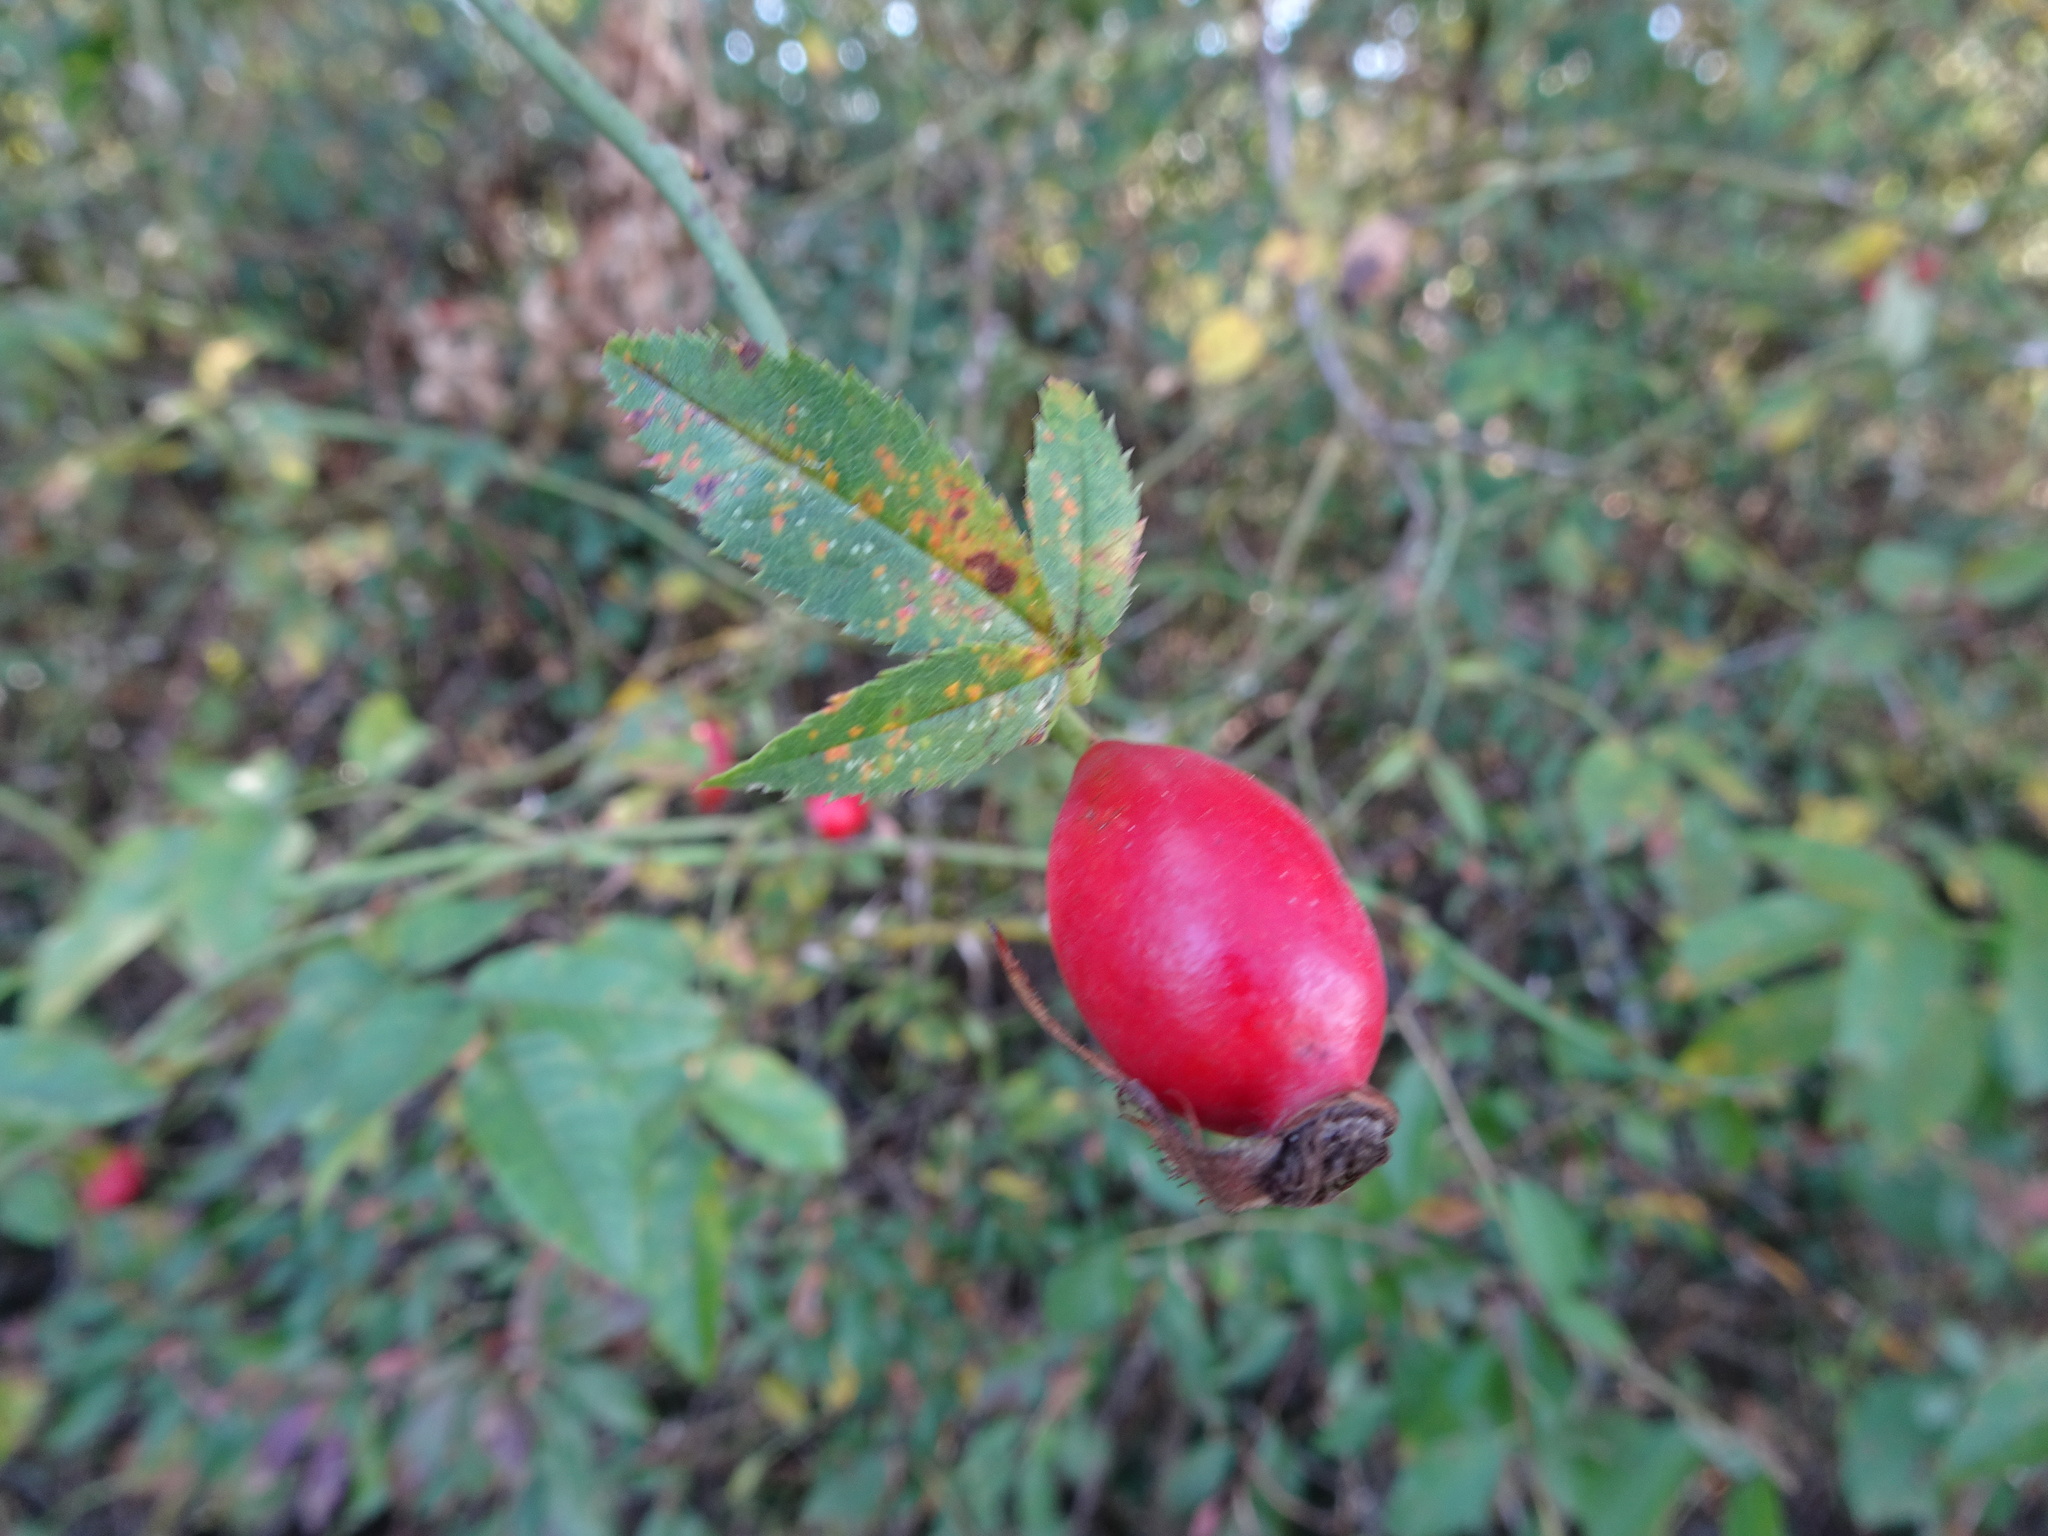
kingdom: Plantae
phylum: Tracheophyta
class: Magnoliopsida
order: Rosales
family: Rosaceae
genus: Rosa
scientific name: Rosa canina
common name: Dog rose
